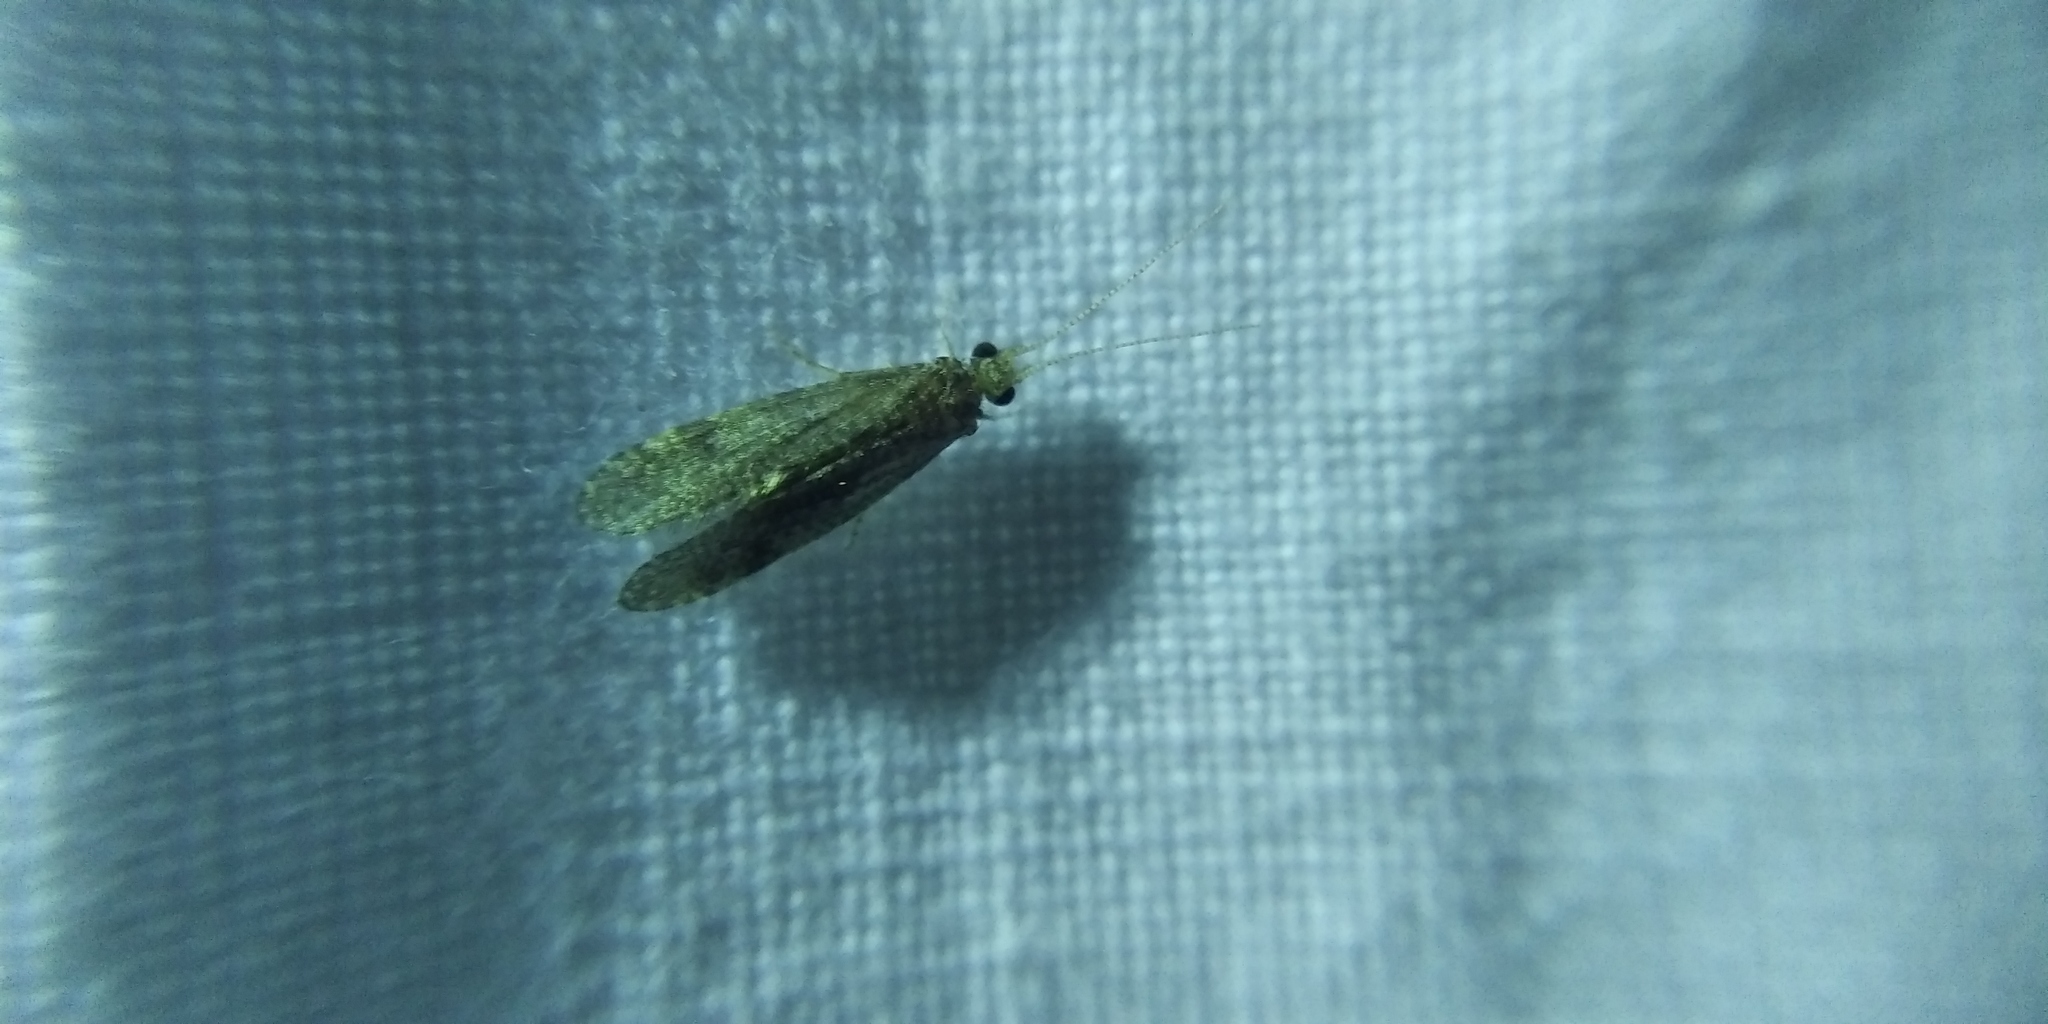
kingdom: Animalia
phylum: Arthropoda
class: Insecta
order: Trichoptera
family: Ecnomidae
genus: Ecnomus
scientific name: Ecnomus tenellus
